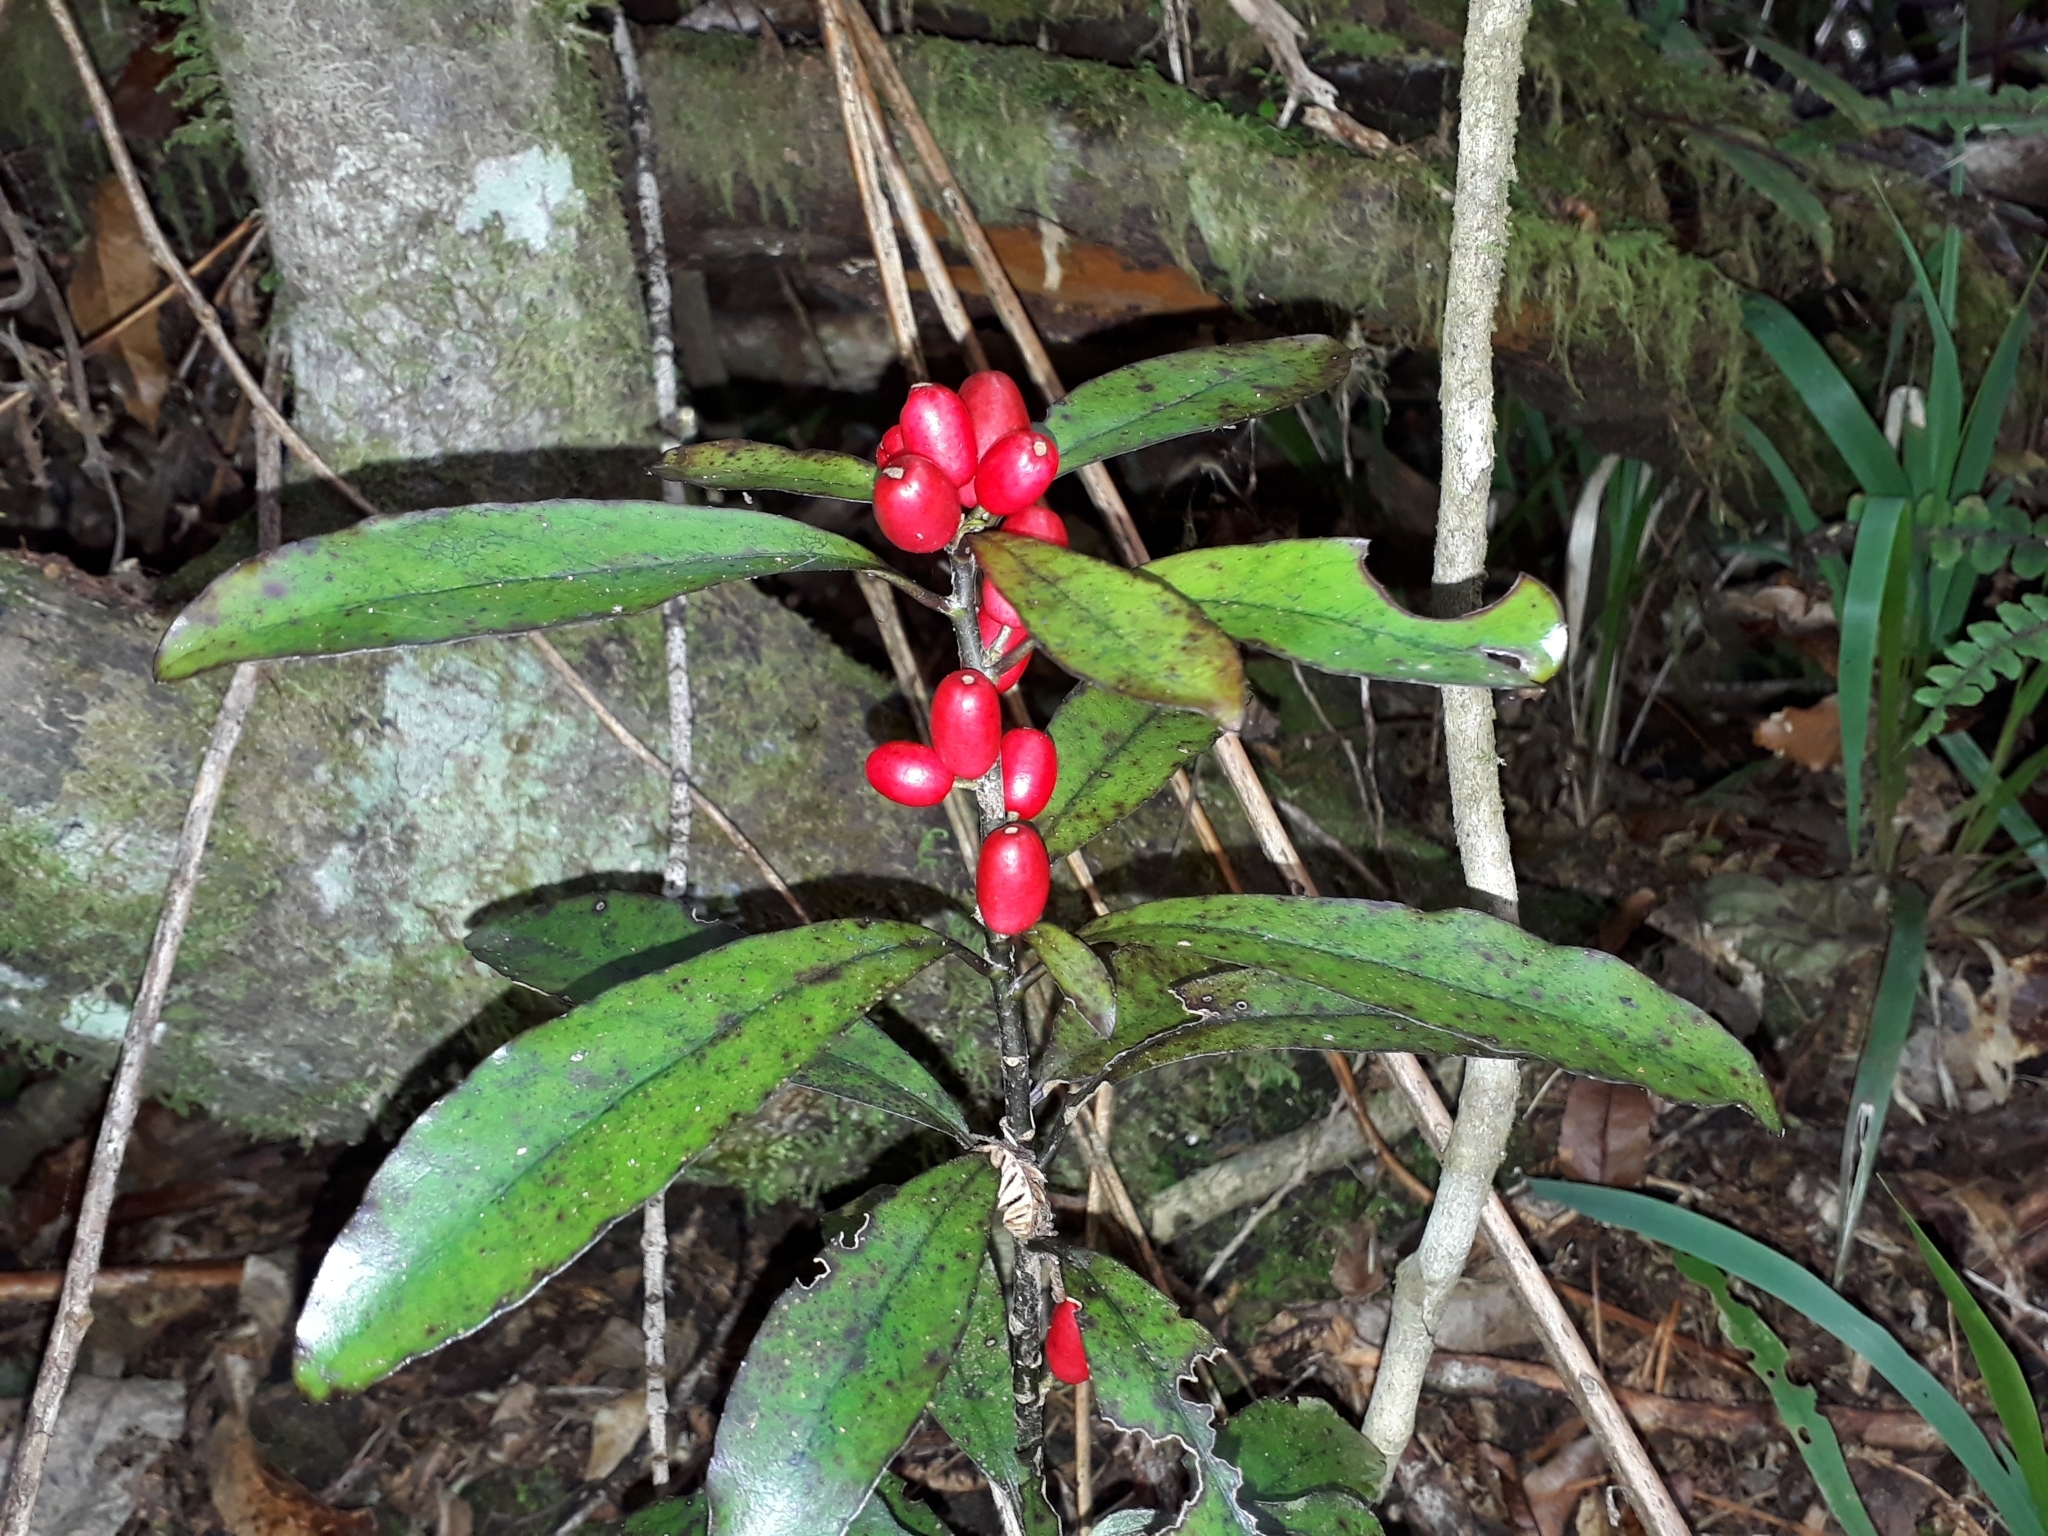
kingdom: Plantae
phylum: Tracheophyta
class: Magnoliopsida
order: Asterales
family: Alseuosmiaceae
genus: Alseuosmia
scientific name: Alseuosmia pusilla
